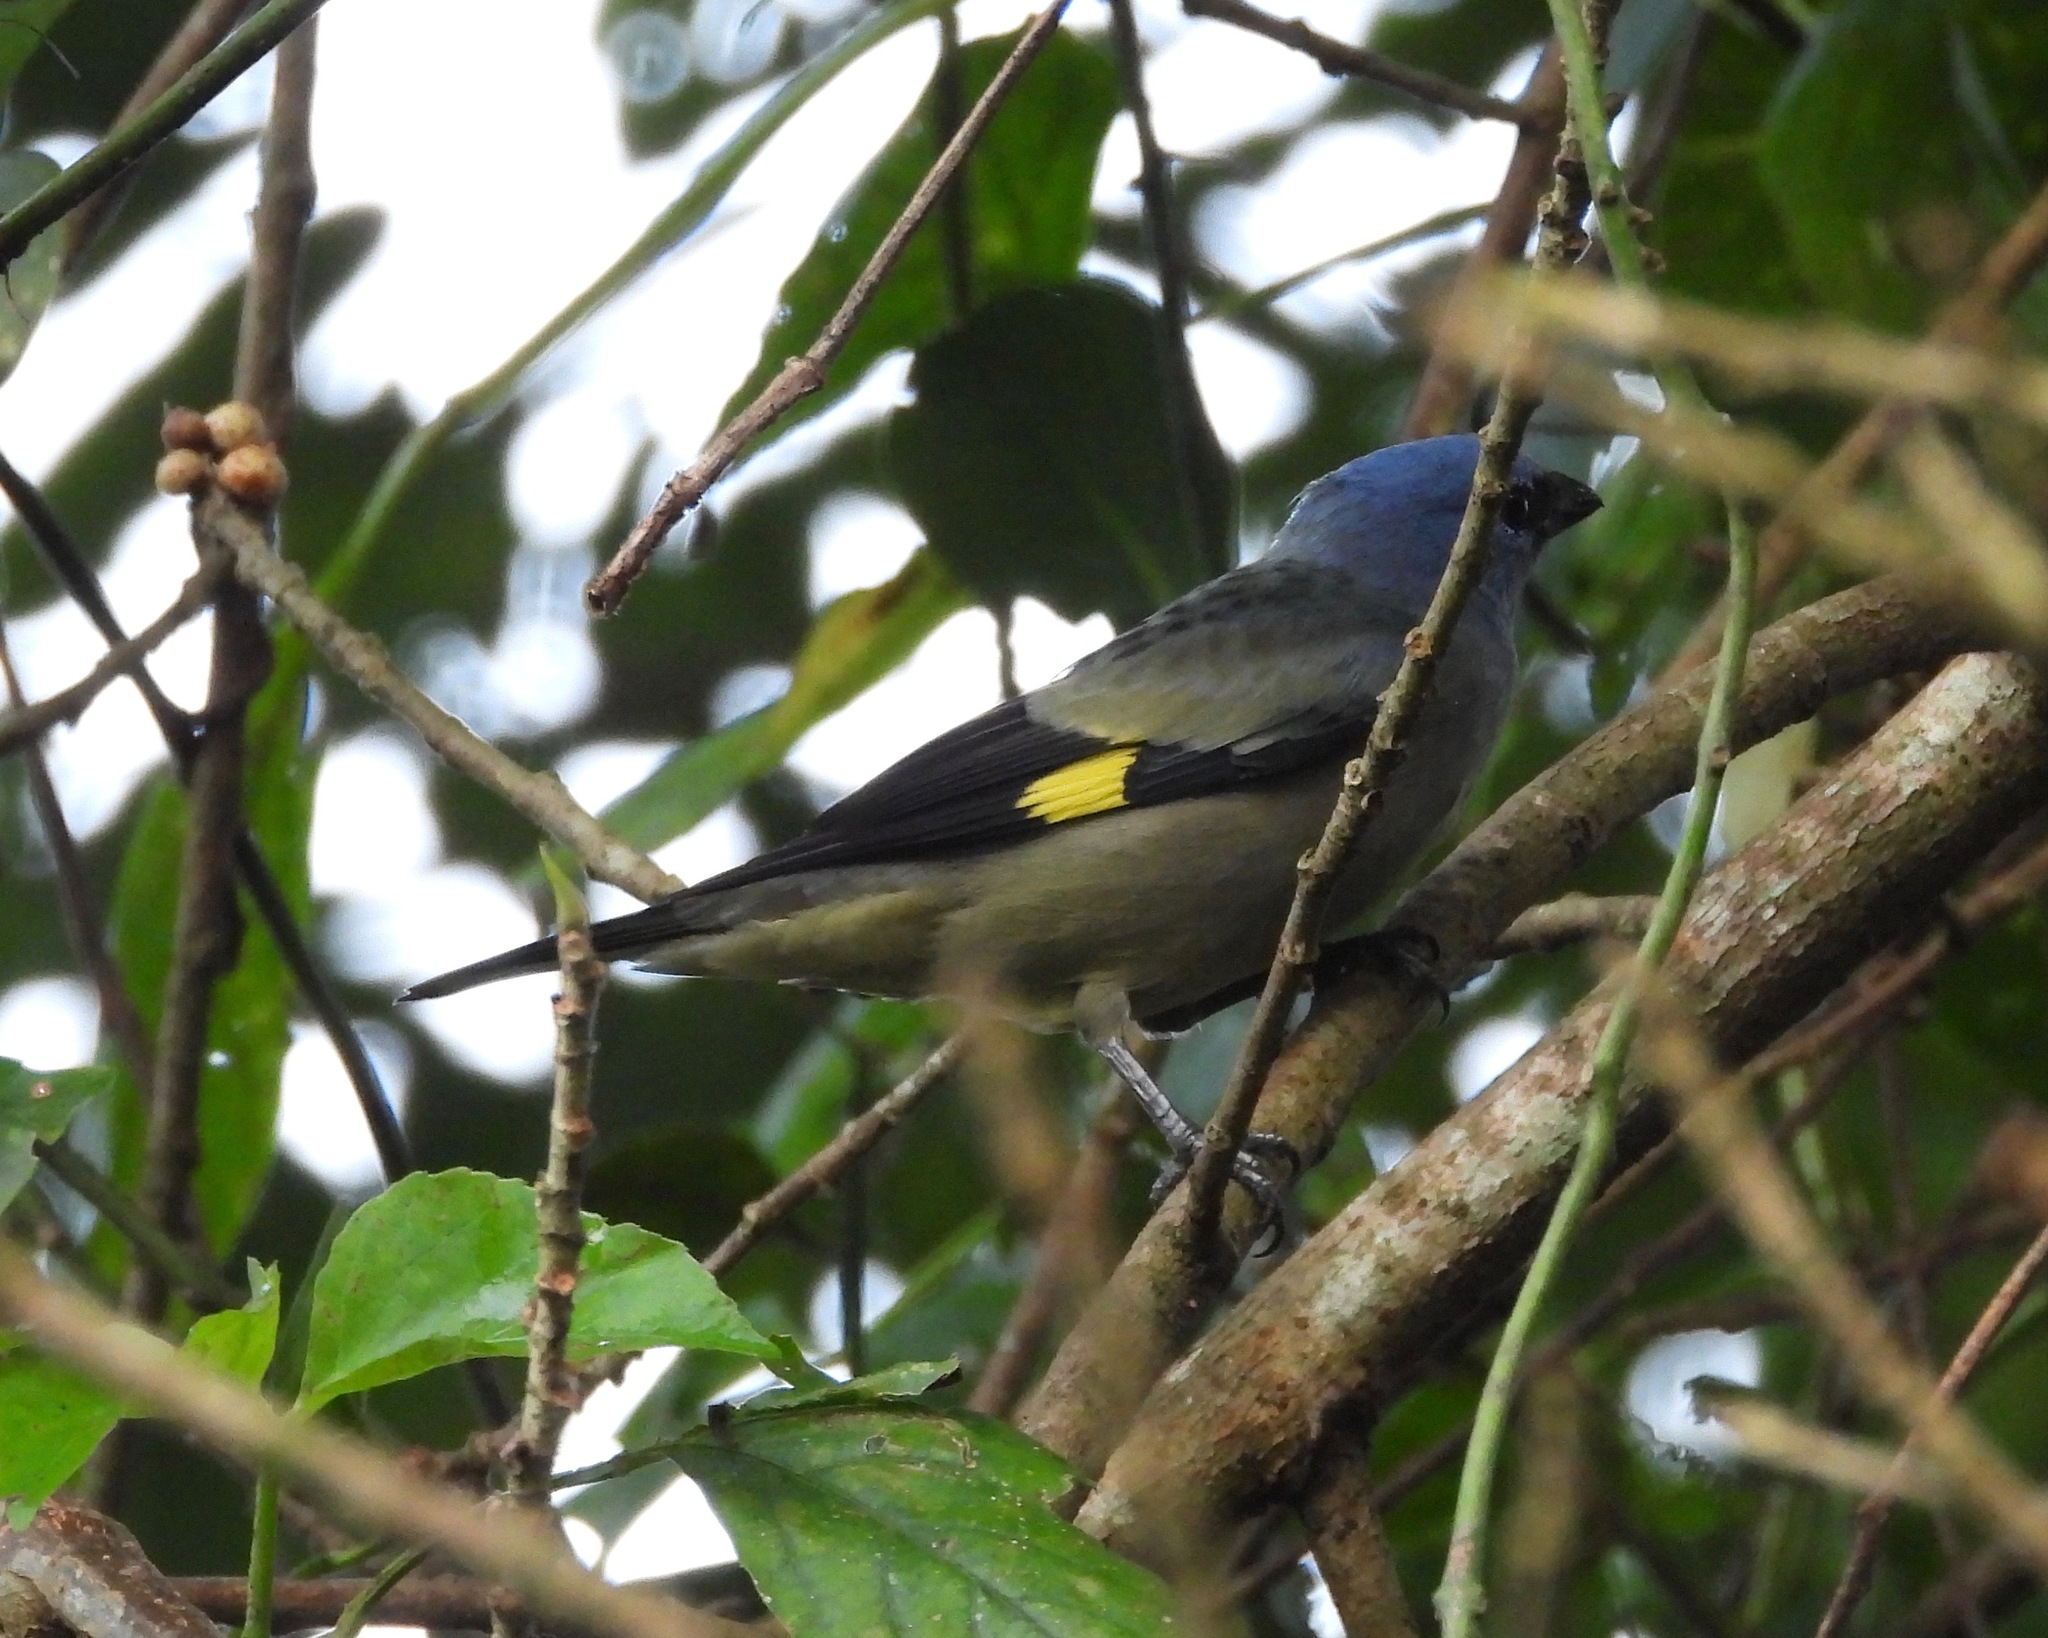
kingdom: Animalia
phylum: Chordata
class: Aves
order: Passeriformes
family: Thraupidae
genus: Thraupis
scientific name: Thraupis abbas
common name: Yellow-winged tanager
